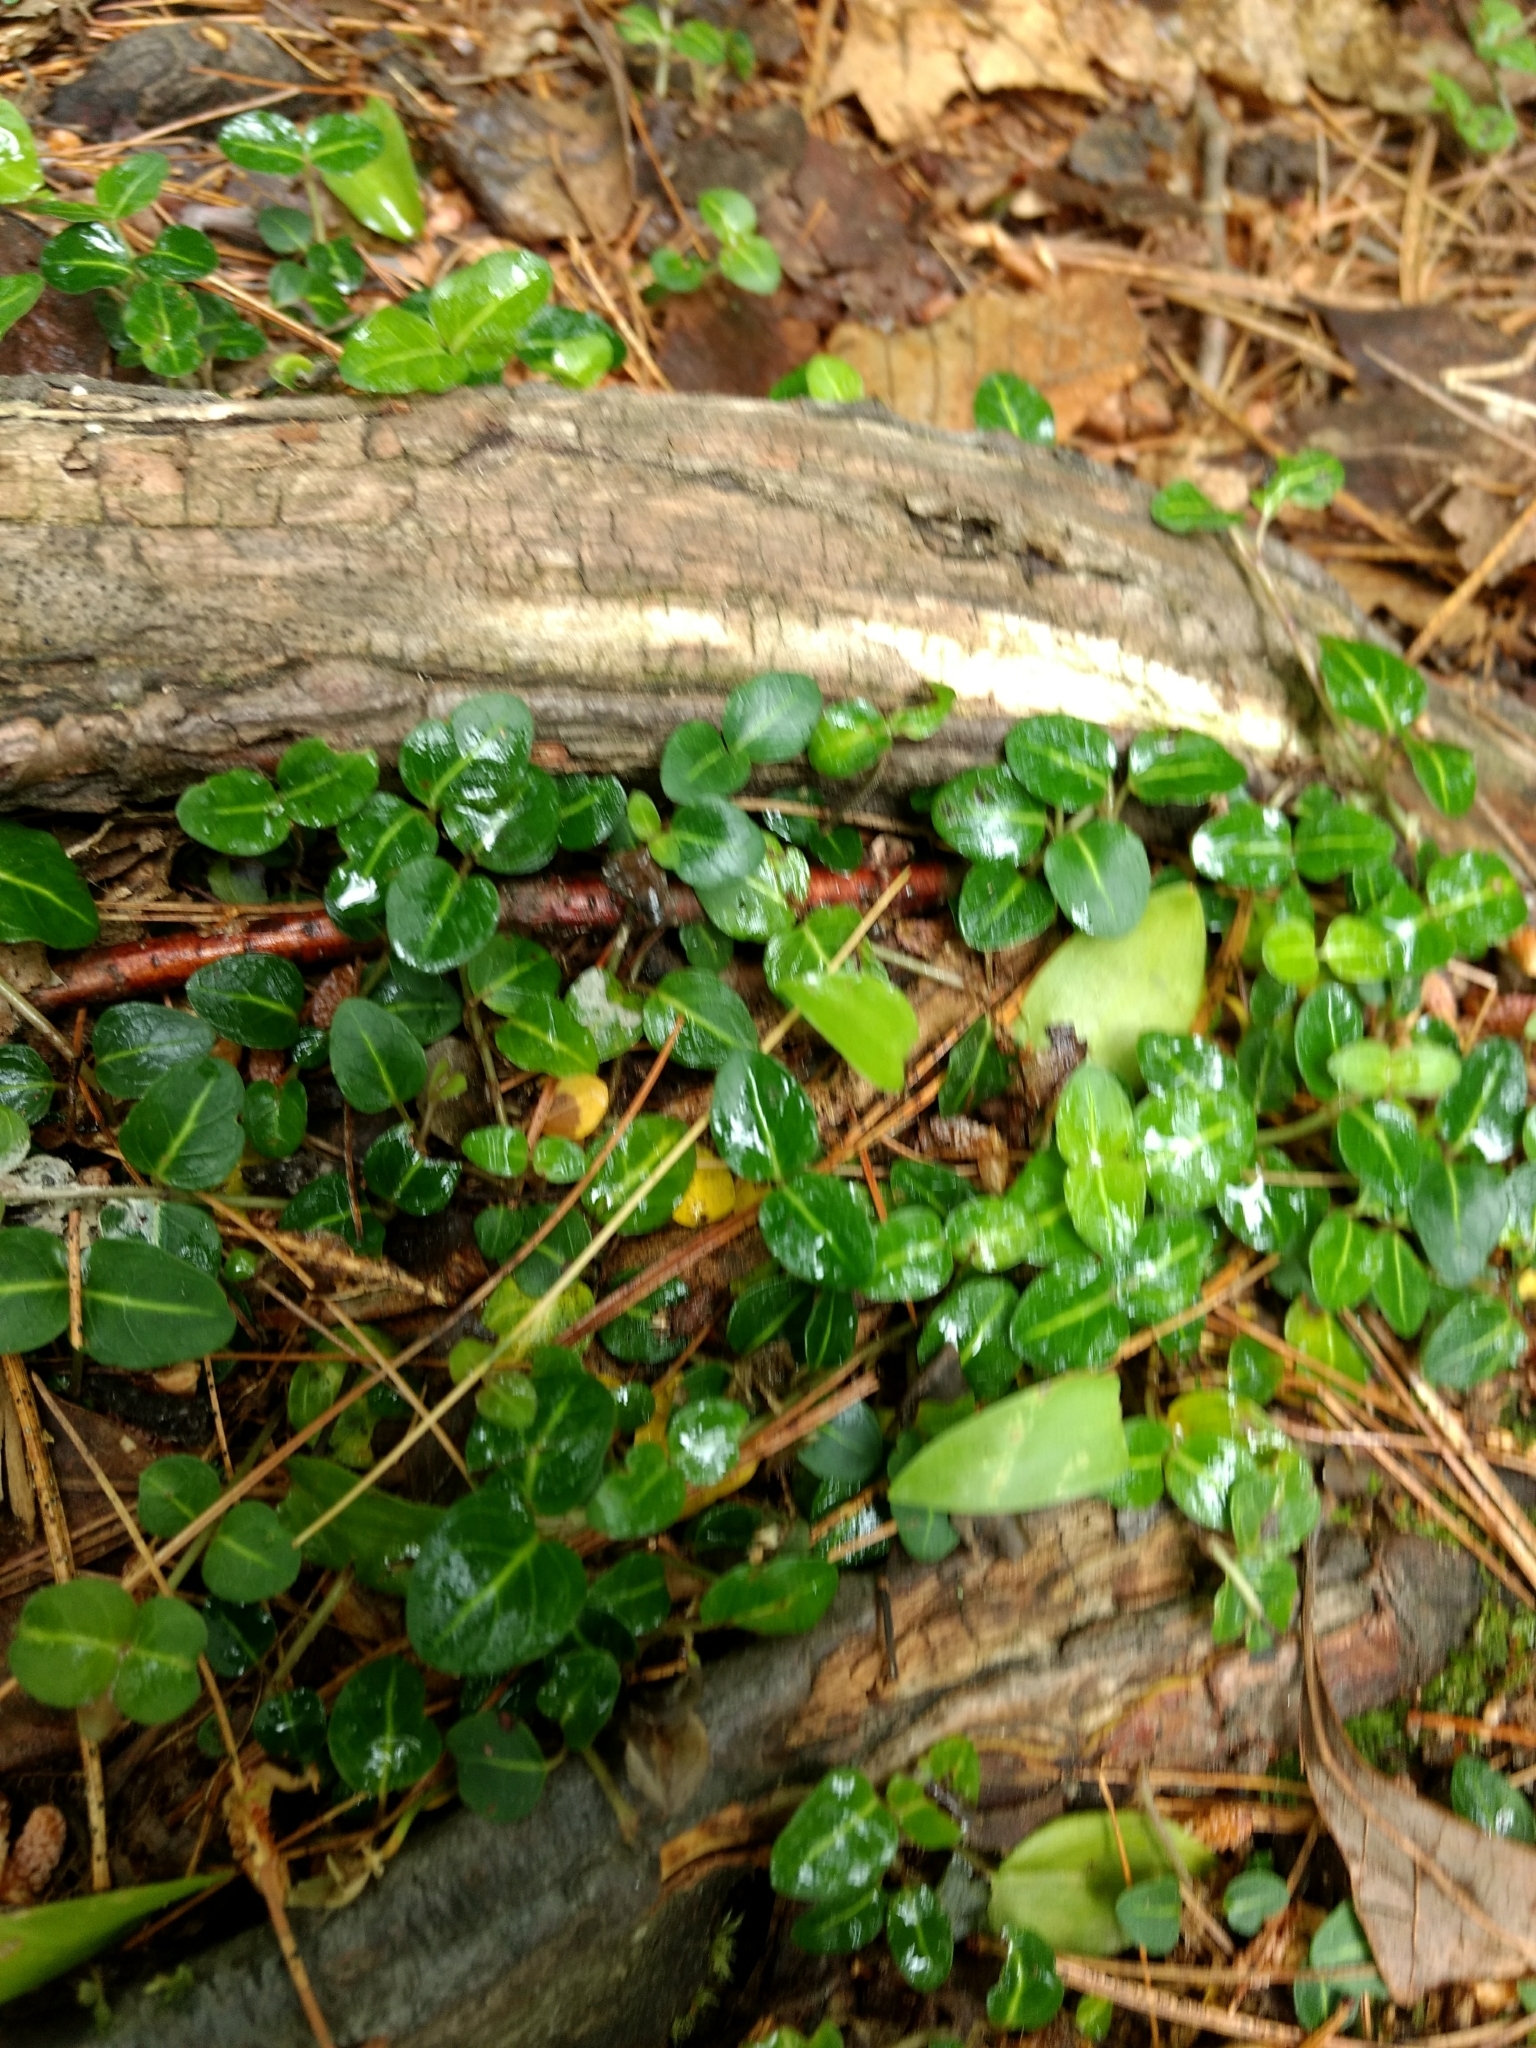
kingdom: Plantae
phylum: Tracheophyta
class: Magnoliopsida
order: Gentianales
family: Rubiaceae
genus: Mitchella
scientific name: Mitchella repens
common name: Partridge-berry
